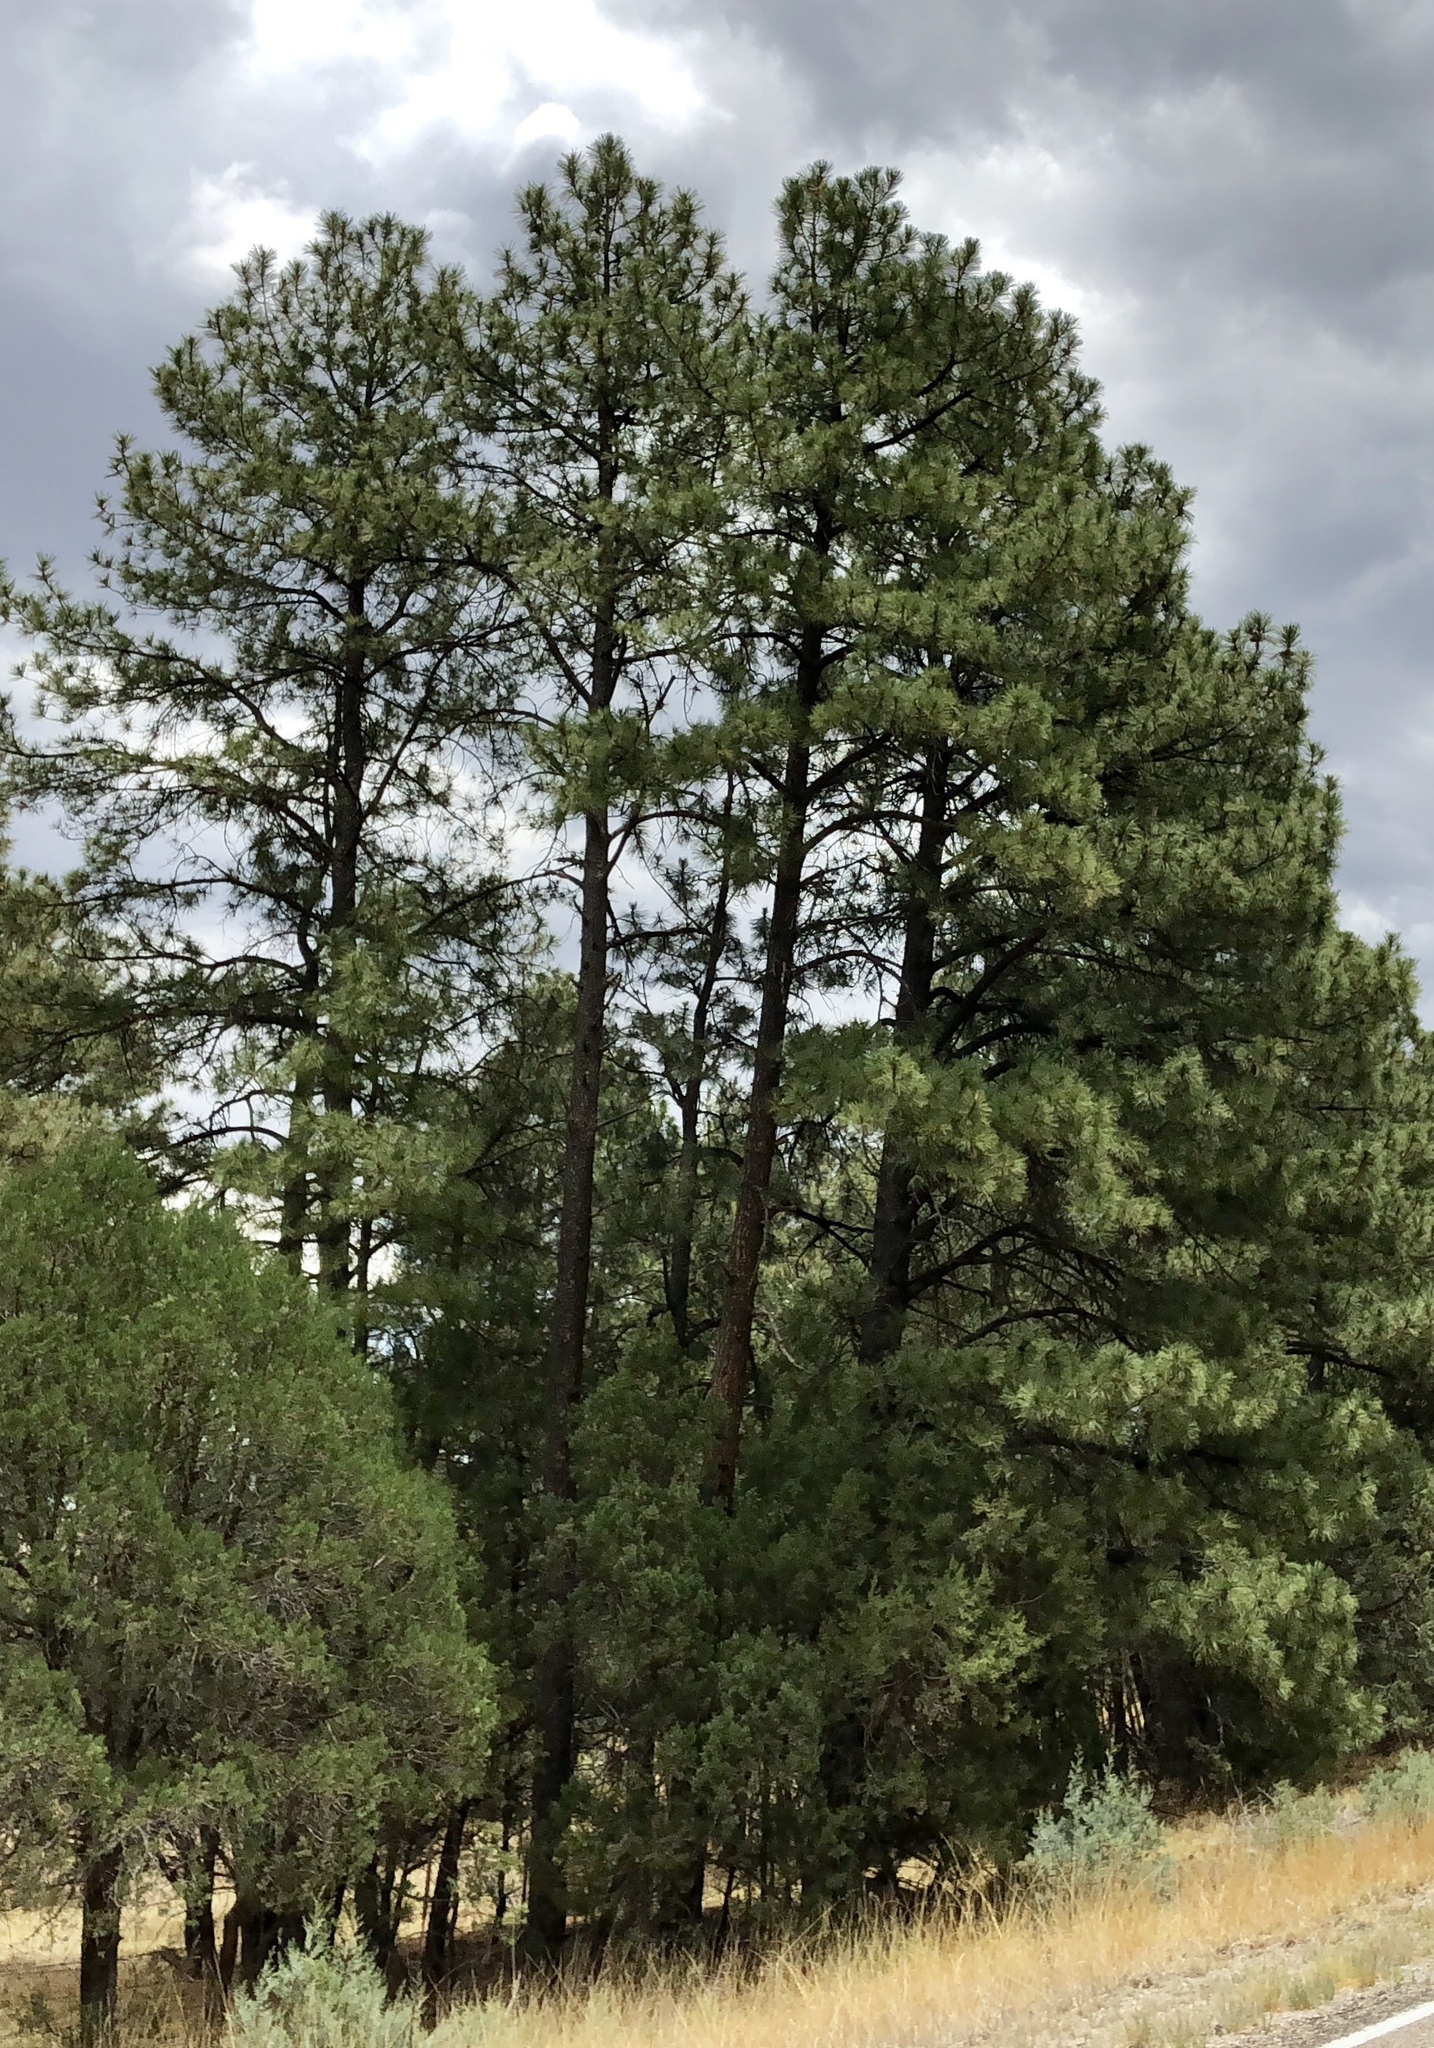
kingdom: Plantae
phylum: Tracheophyta
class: Pinopsida
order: Pinales
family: Pinaceae
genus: Pinus
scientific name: Pinus ponderosa
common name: Western yellow-pine
